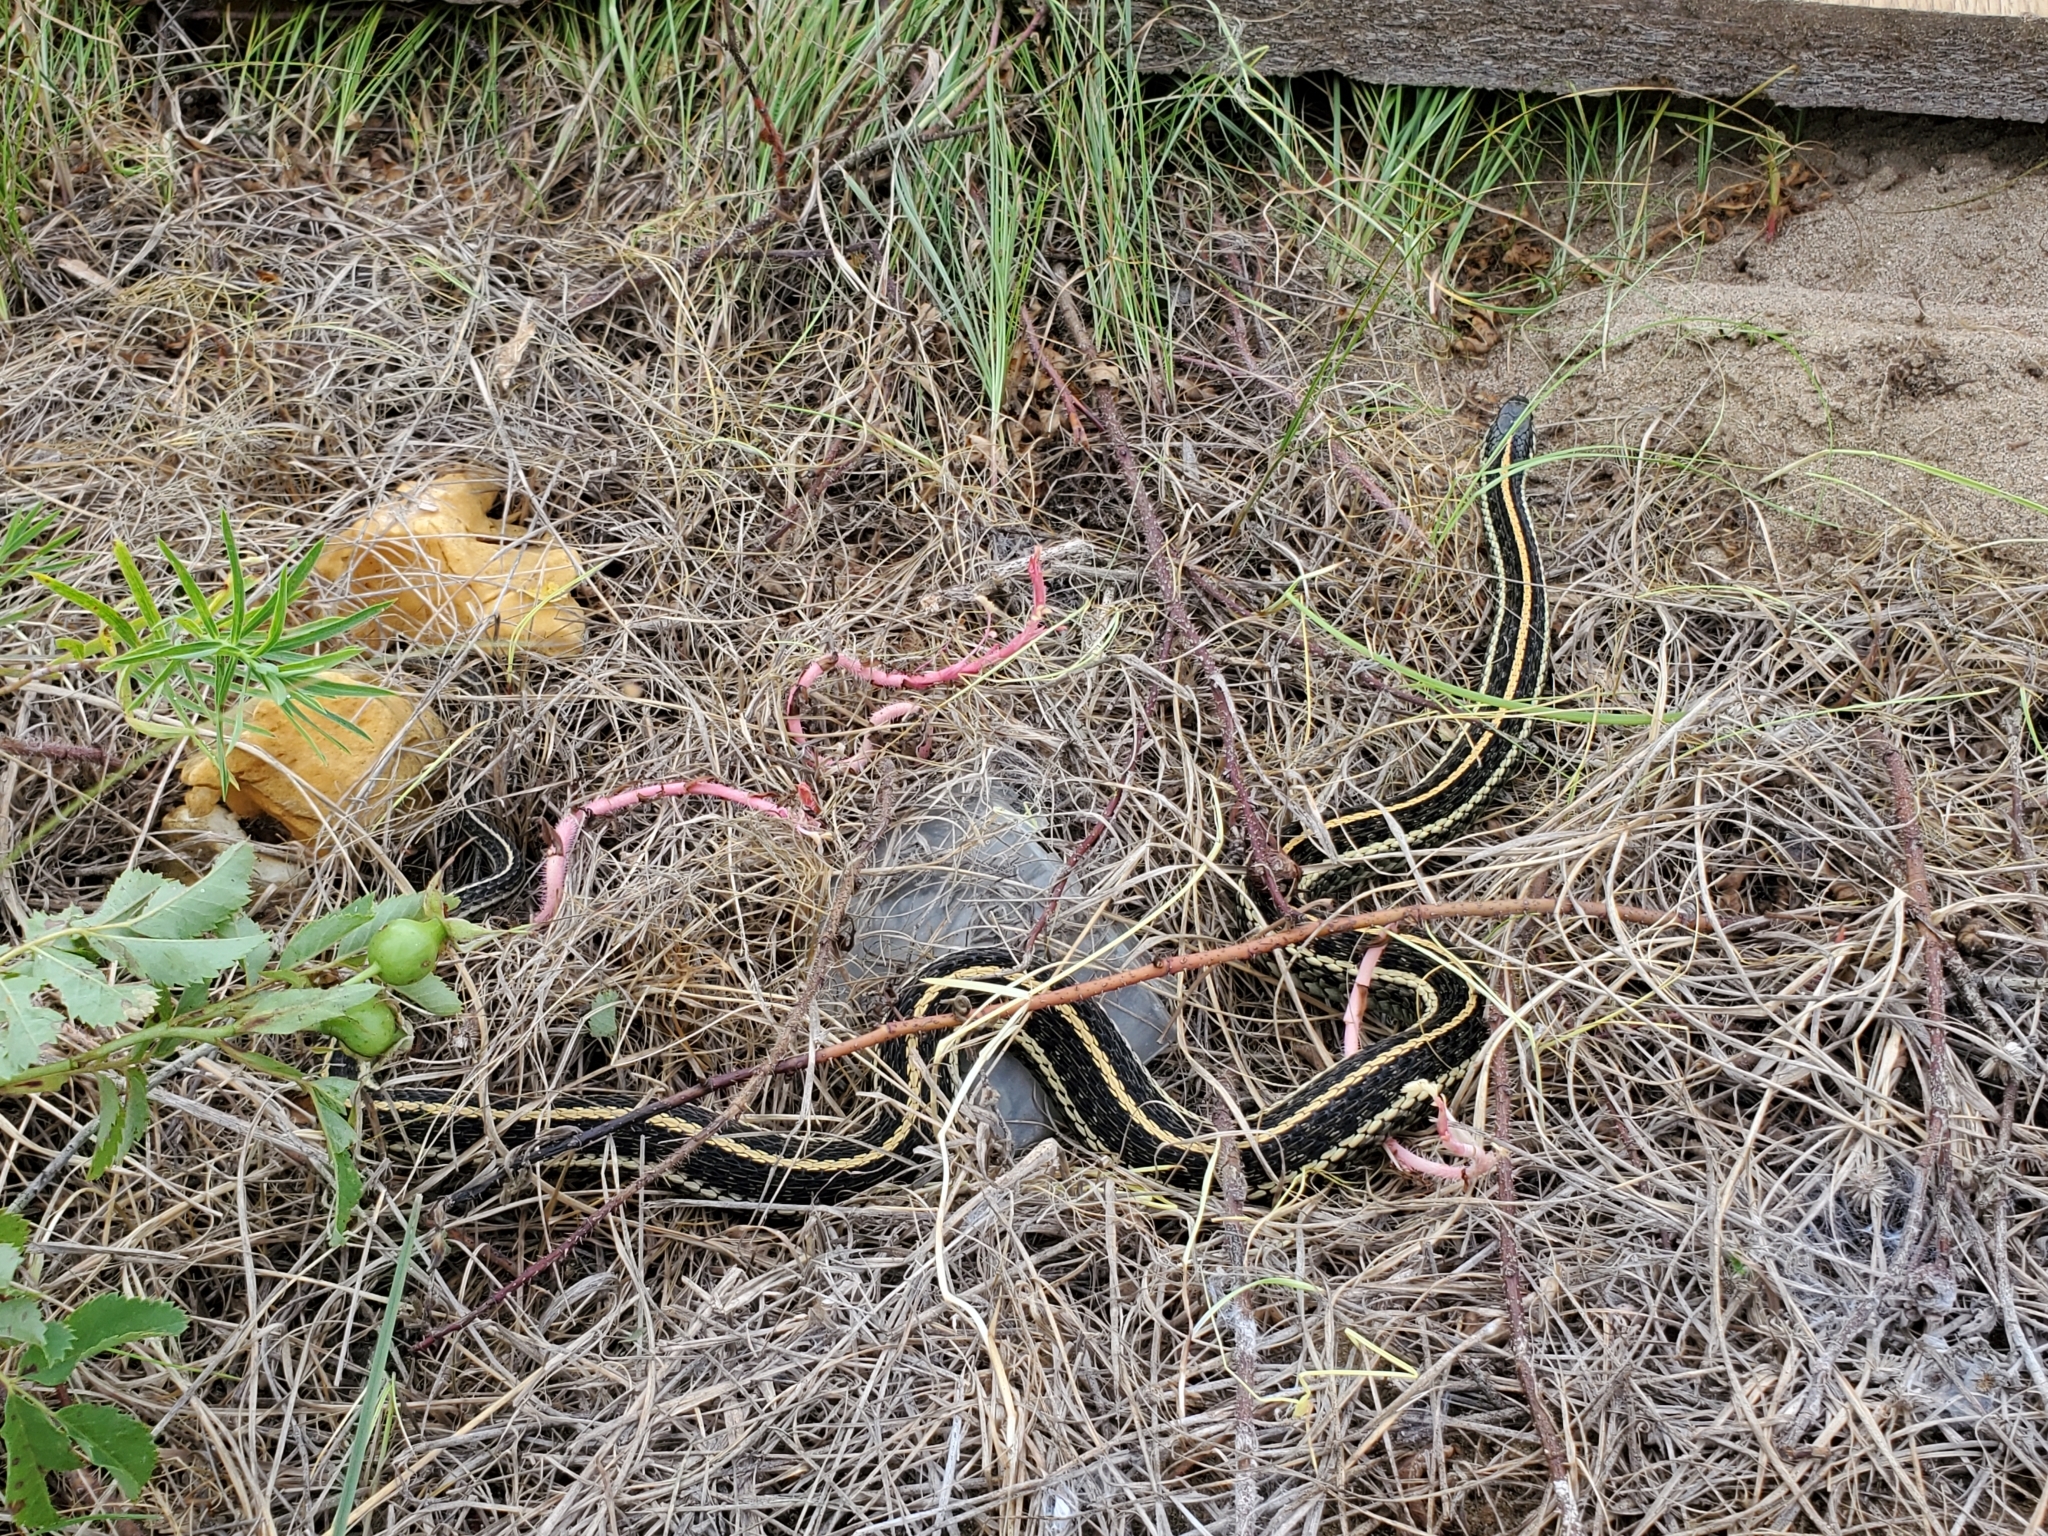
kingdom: Animalia
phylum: Chordata
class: Squamata
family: Colubridae
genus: Thamnophis
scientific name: Thamnophis radix
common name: Plains garter snake
